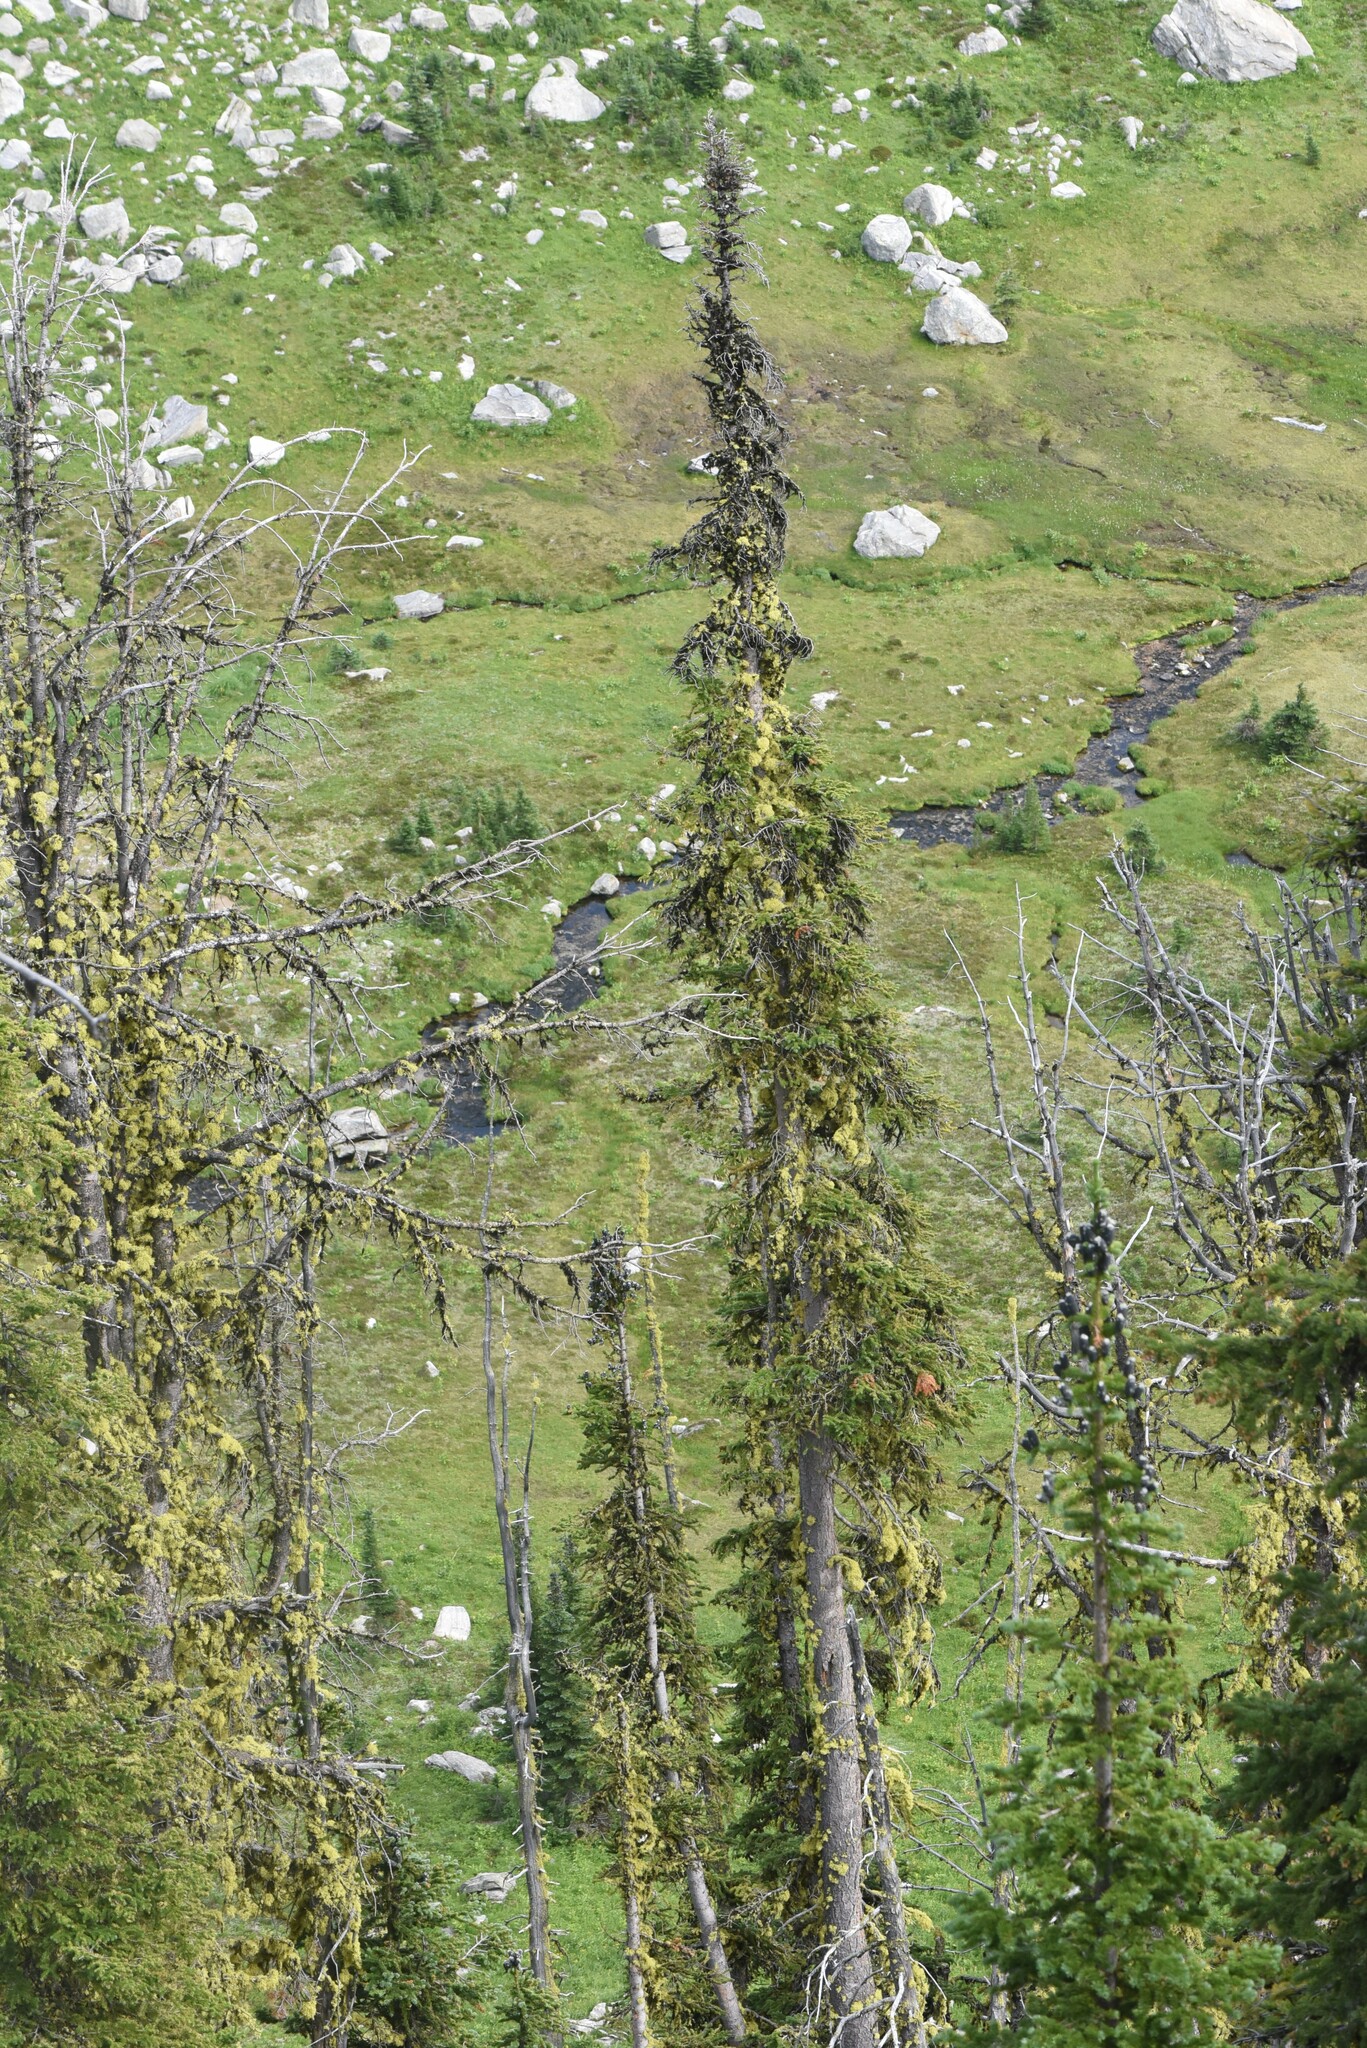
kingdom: Fungi
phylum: Ascomycota
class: Lecanoromycetes
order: Lecanorales
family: Parmeliaceae
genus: Letharia
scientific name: Letharia vulpina
